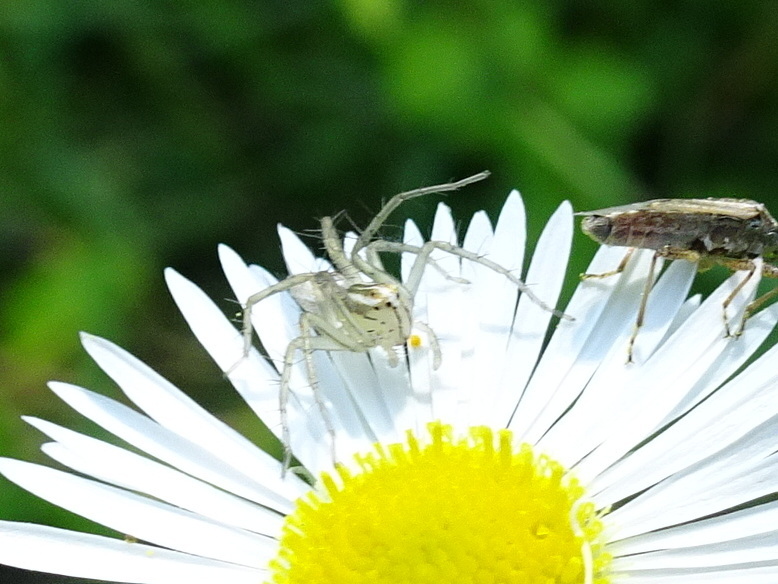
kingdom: Animalia
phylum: Arthropoda
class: Arachnida
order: Araneae
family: Oxyopidae
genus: Oxyopes
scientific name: Oxyopes salticus
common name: Lynx spiders
